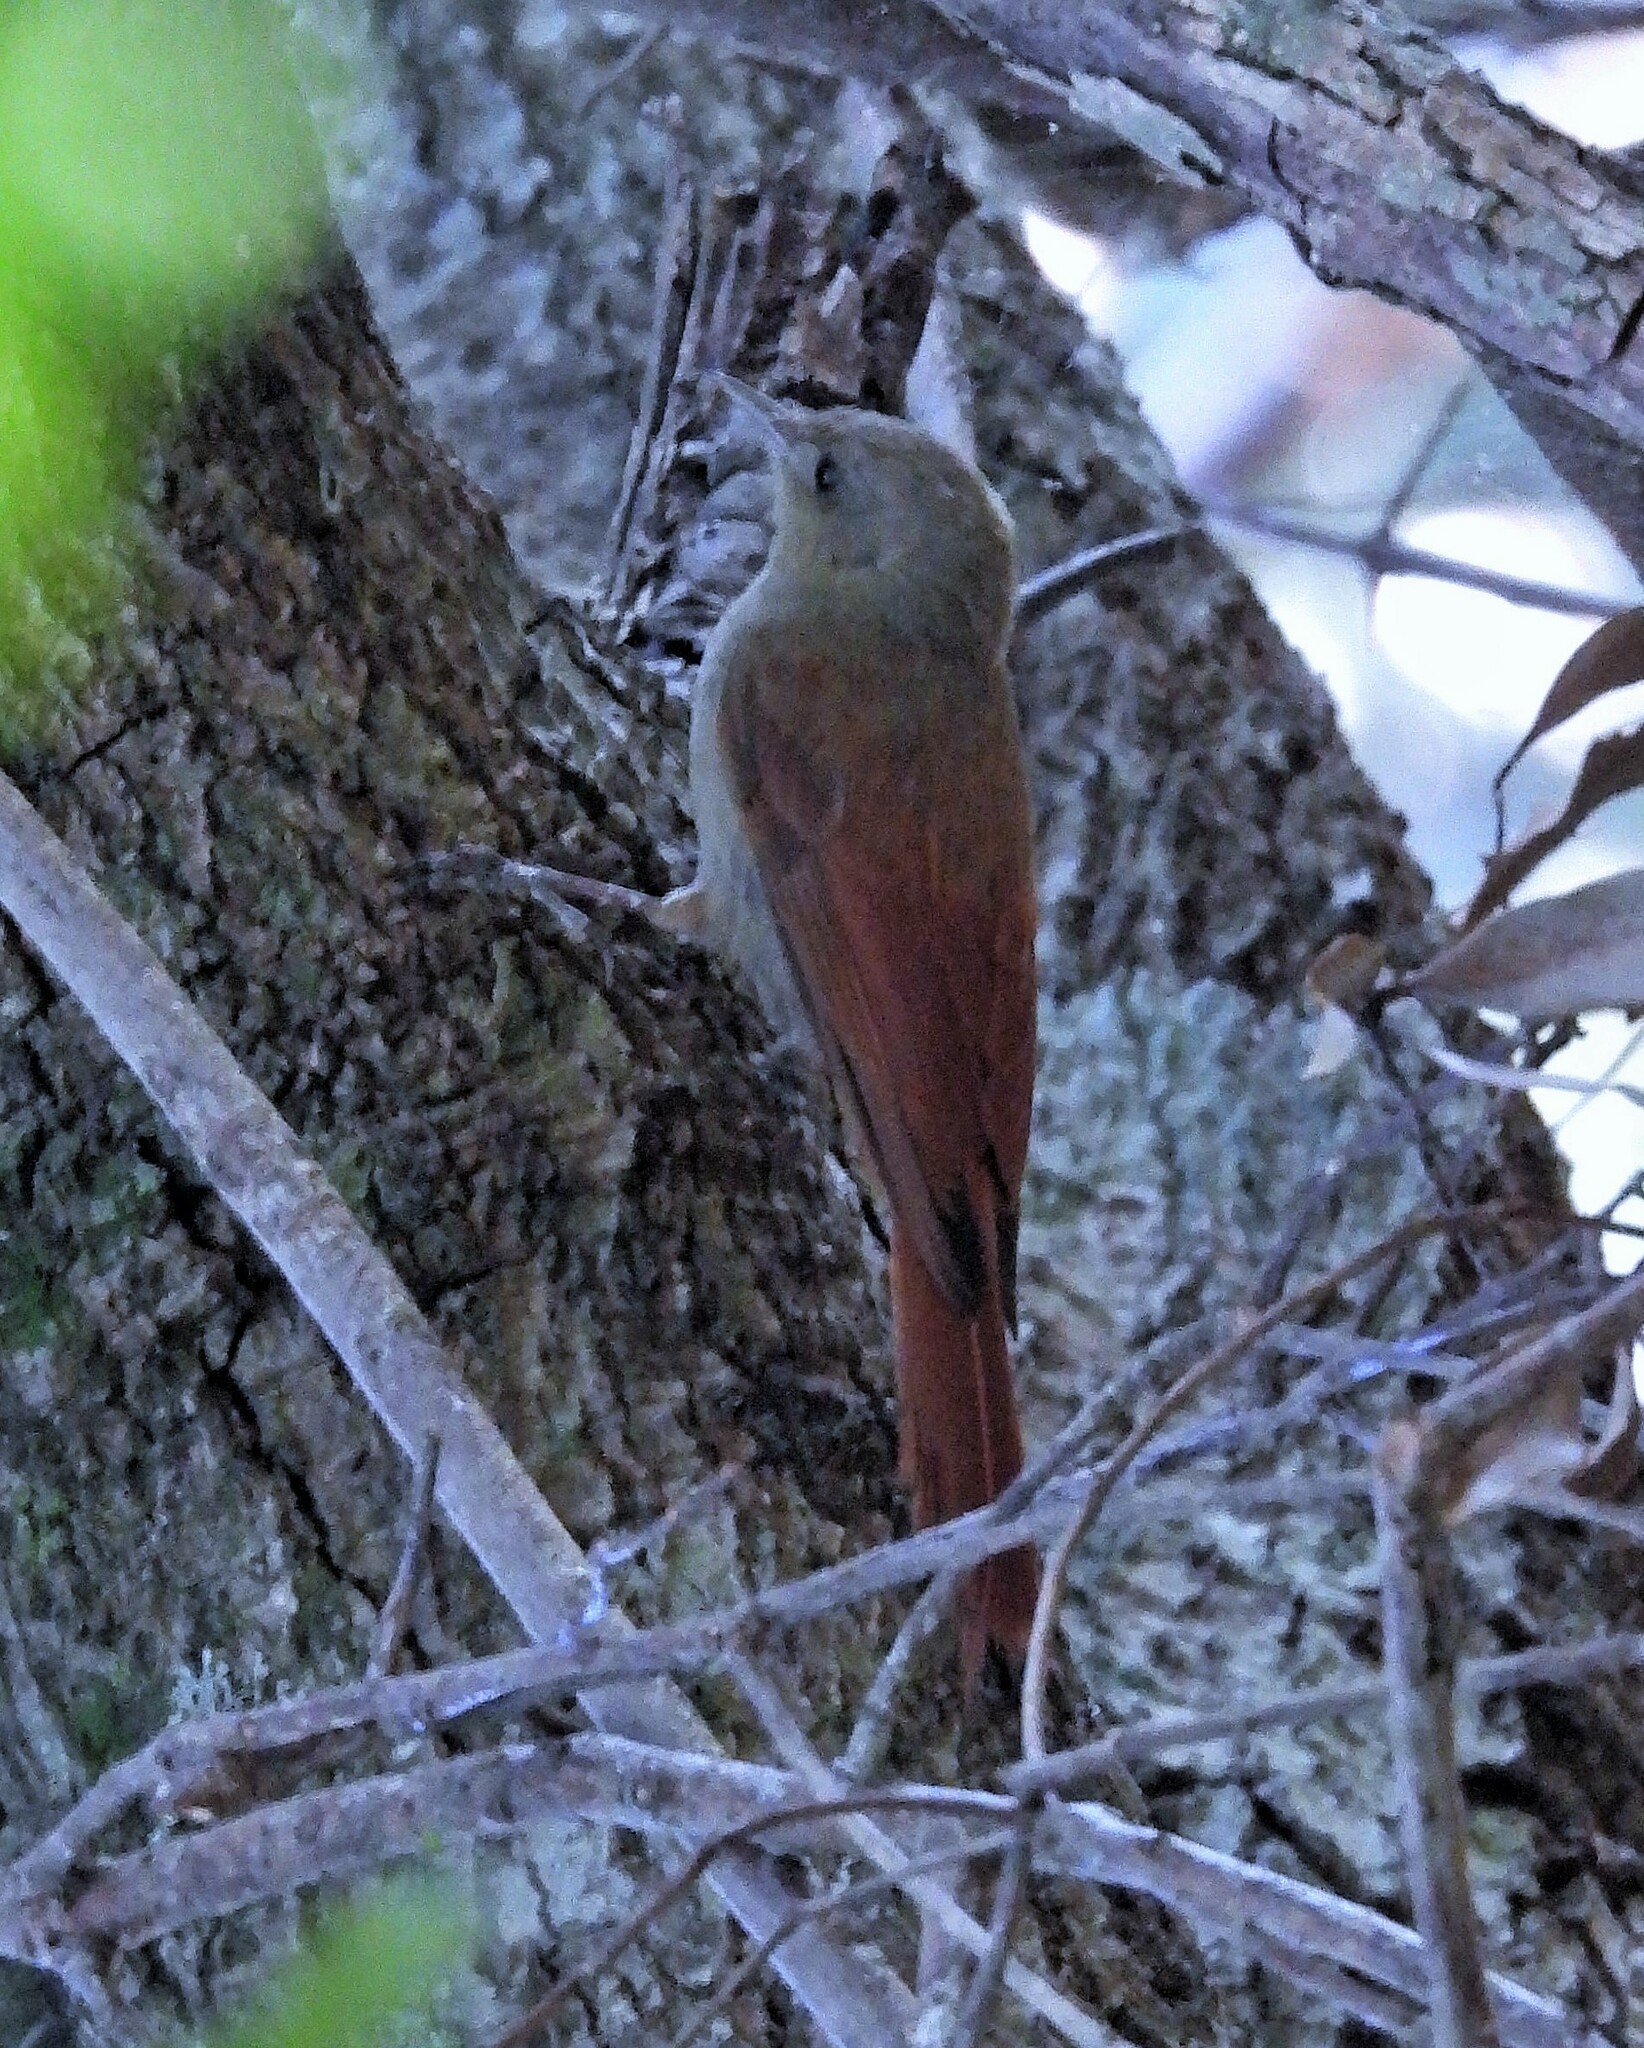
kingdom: Animalia
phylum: Chordata
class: Aves
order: Passeriformes
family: Furnariidae
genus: Sittasomus
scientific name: Sittasomus griseicapillus
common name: Olivaceous woodcreeper
